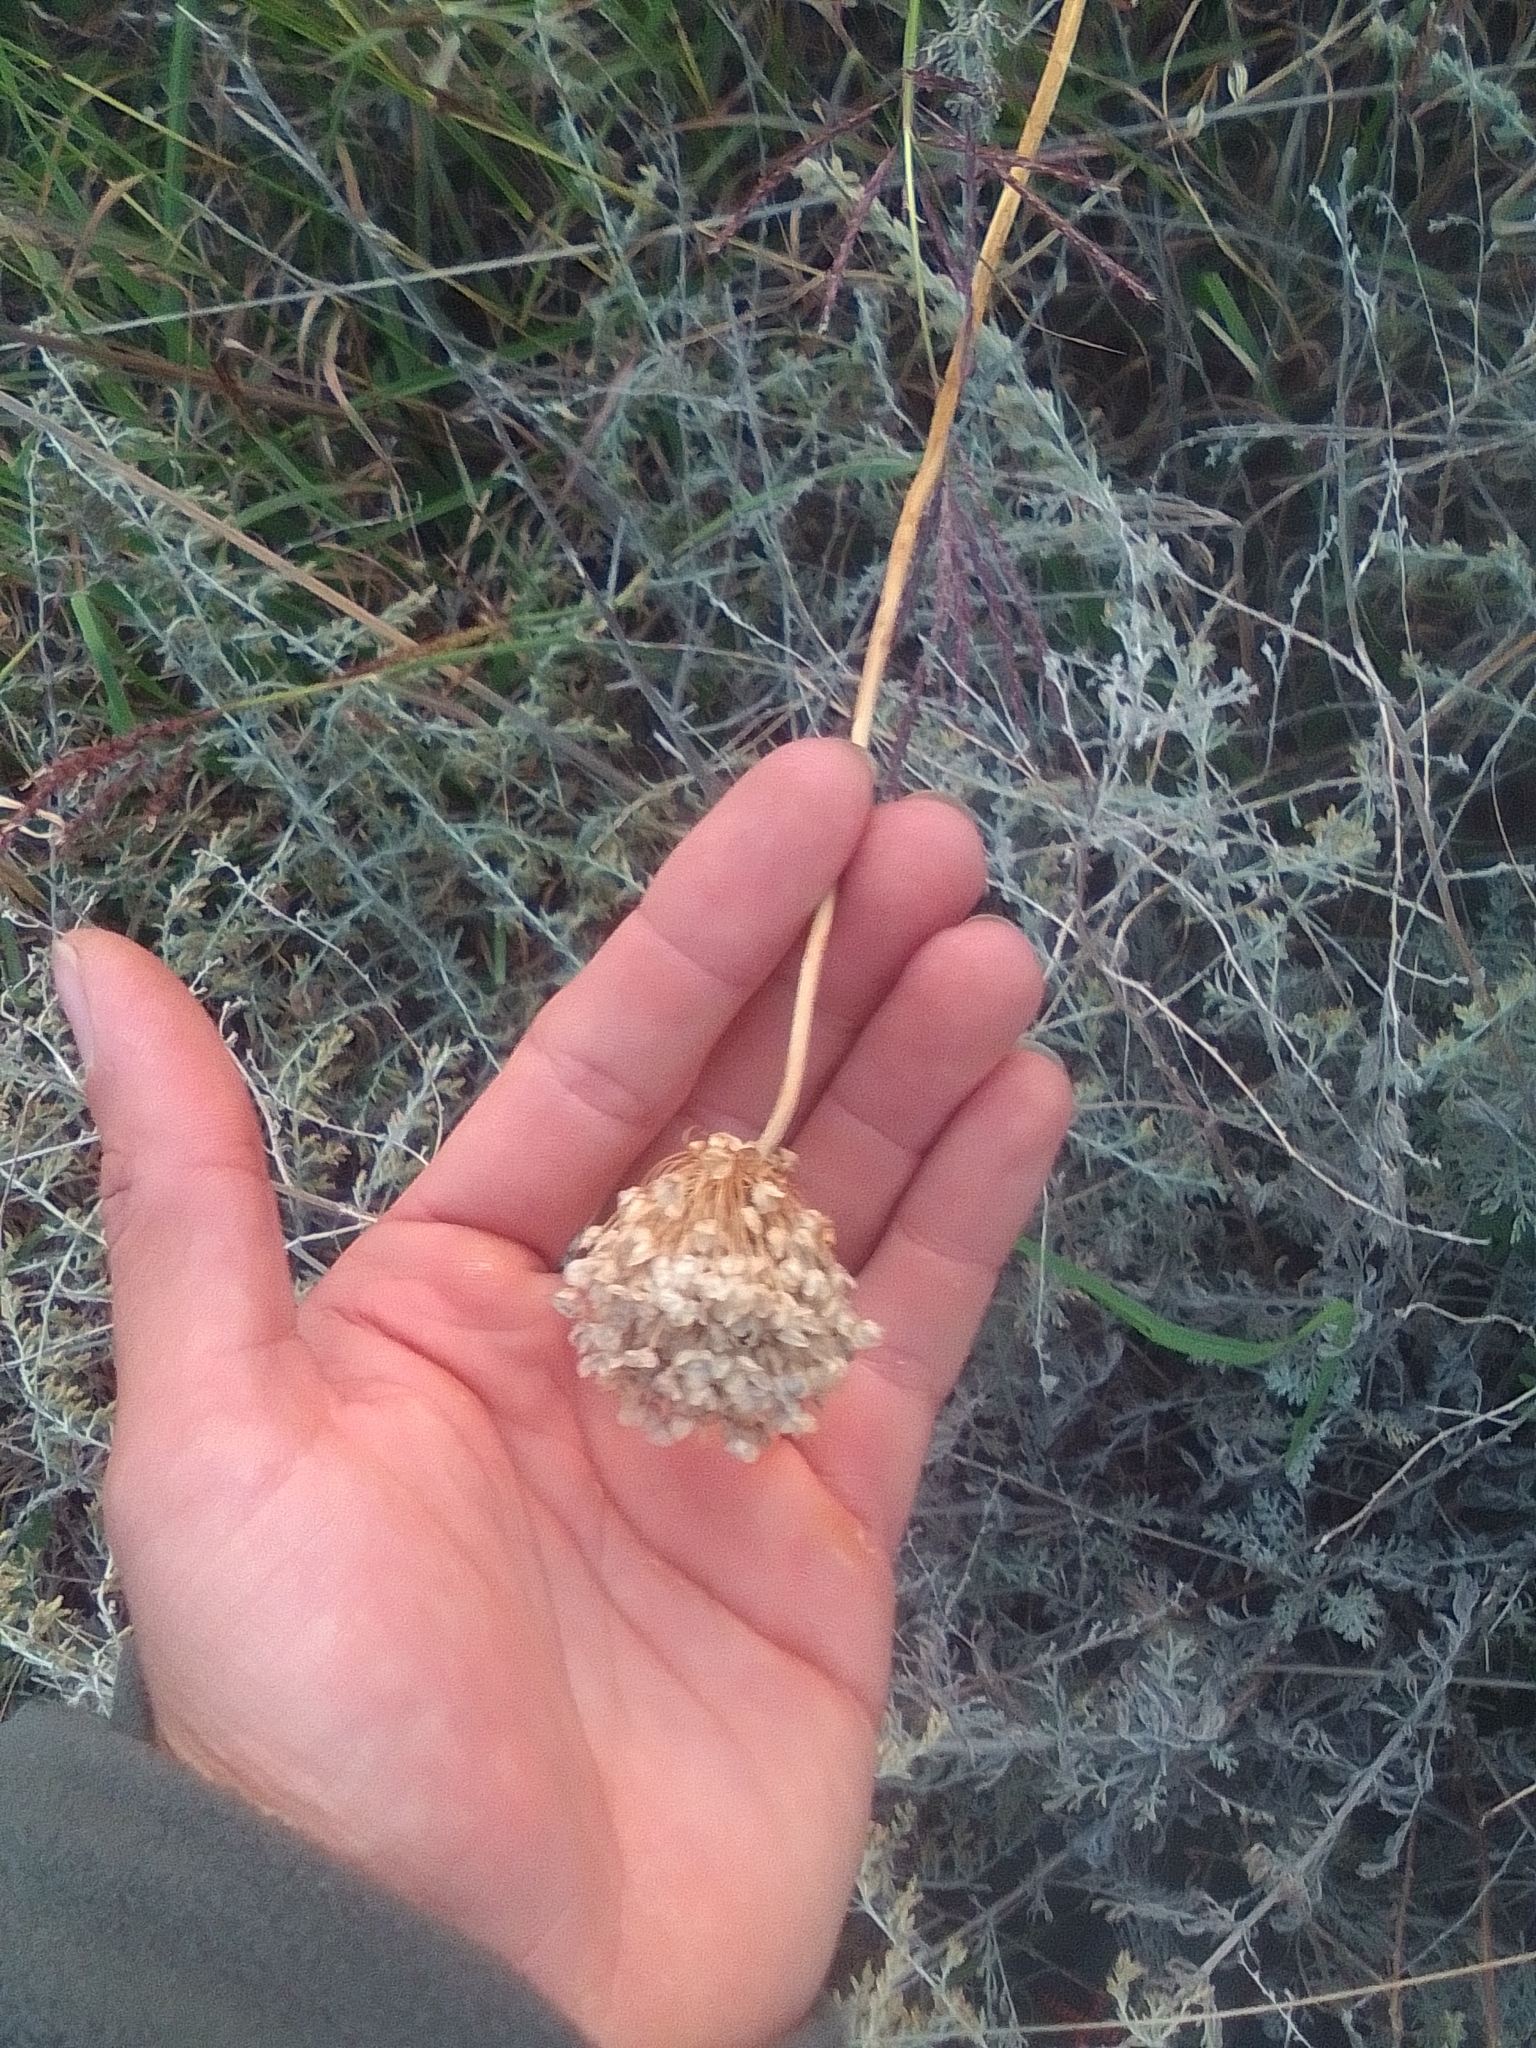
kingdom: Plantae
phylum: Tracheophyta
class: Liliopsida
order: Asparagales
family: Amaryllidaceae
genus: Allium
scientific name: Allium
